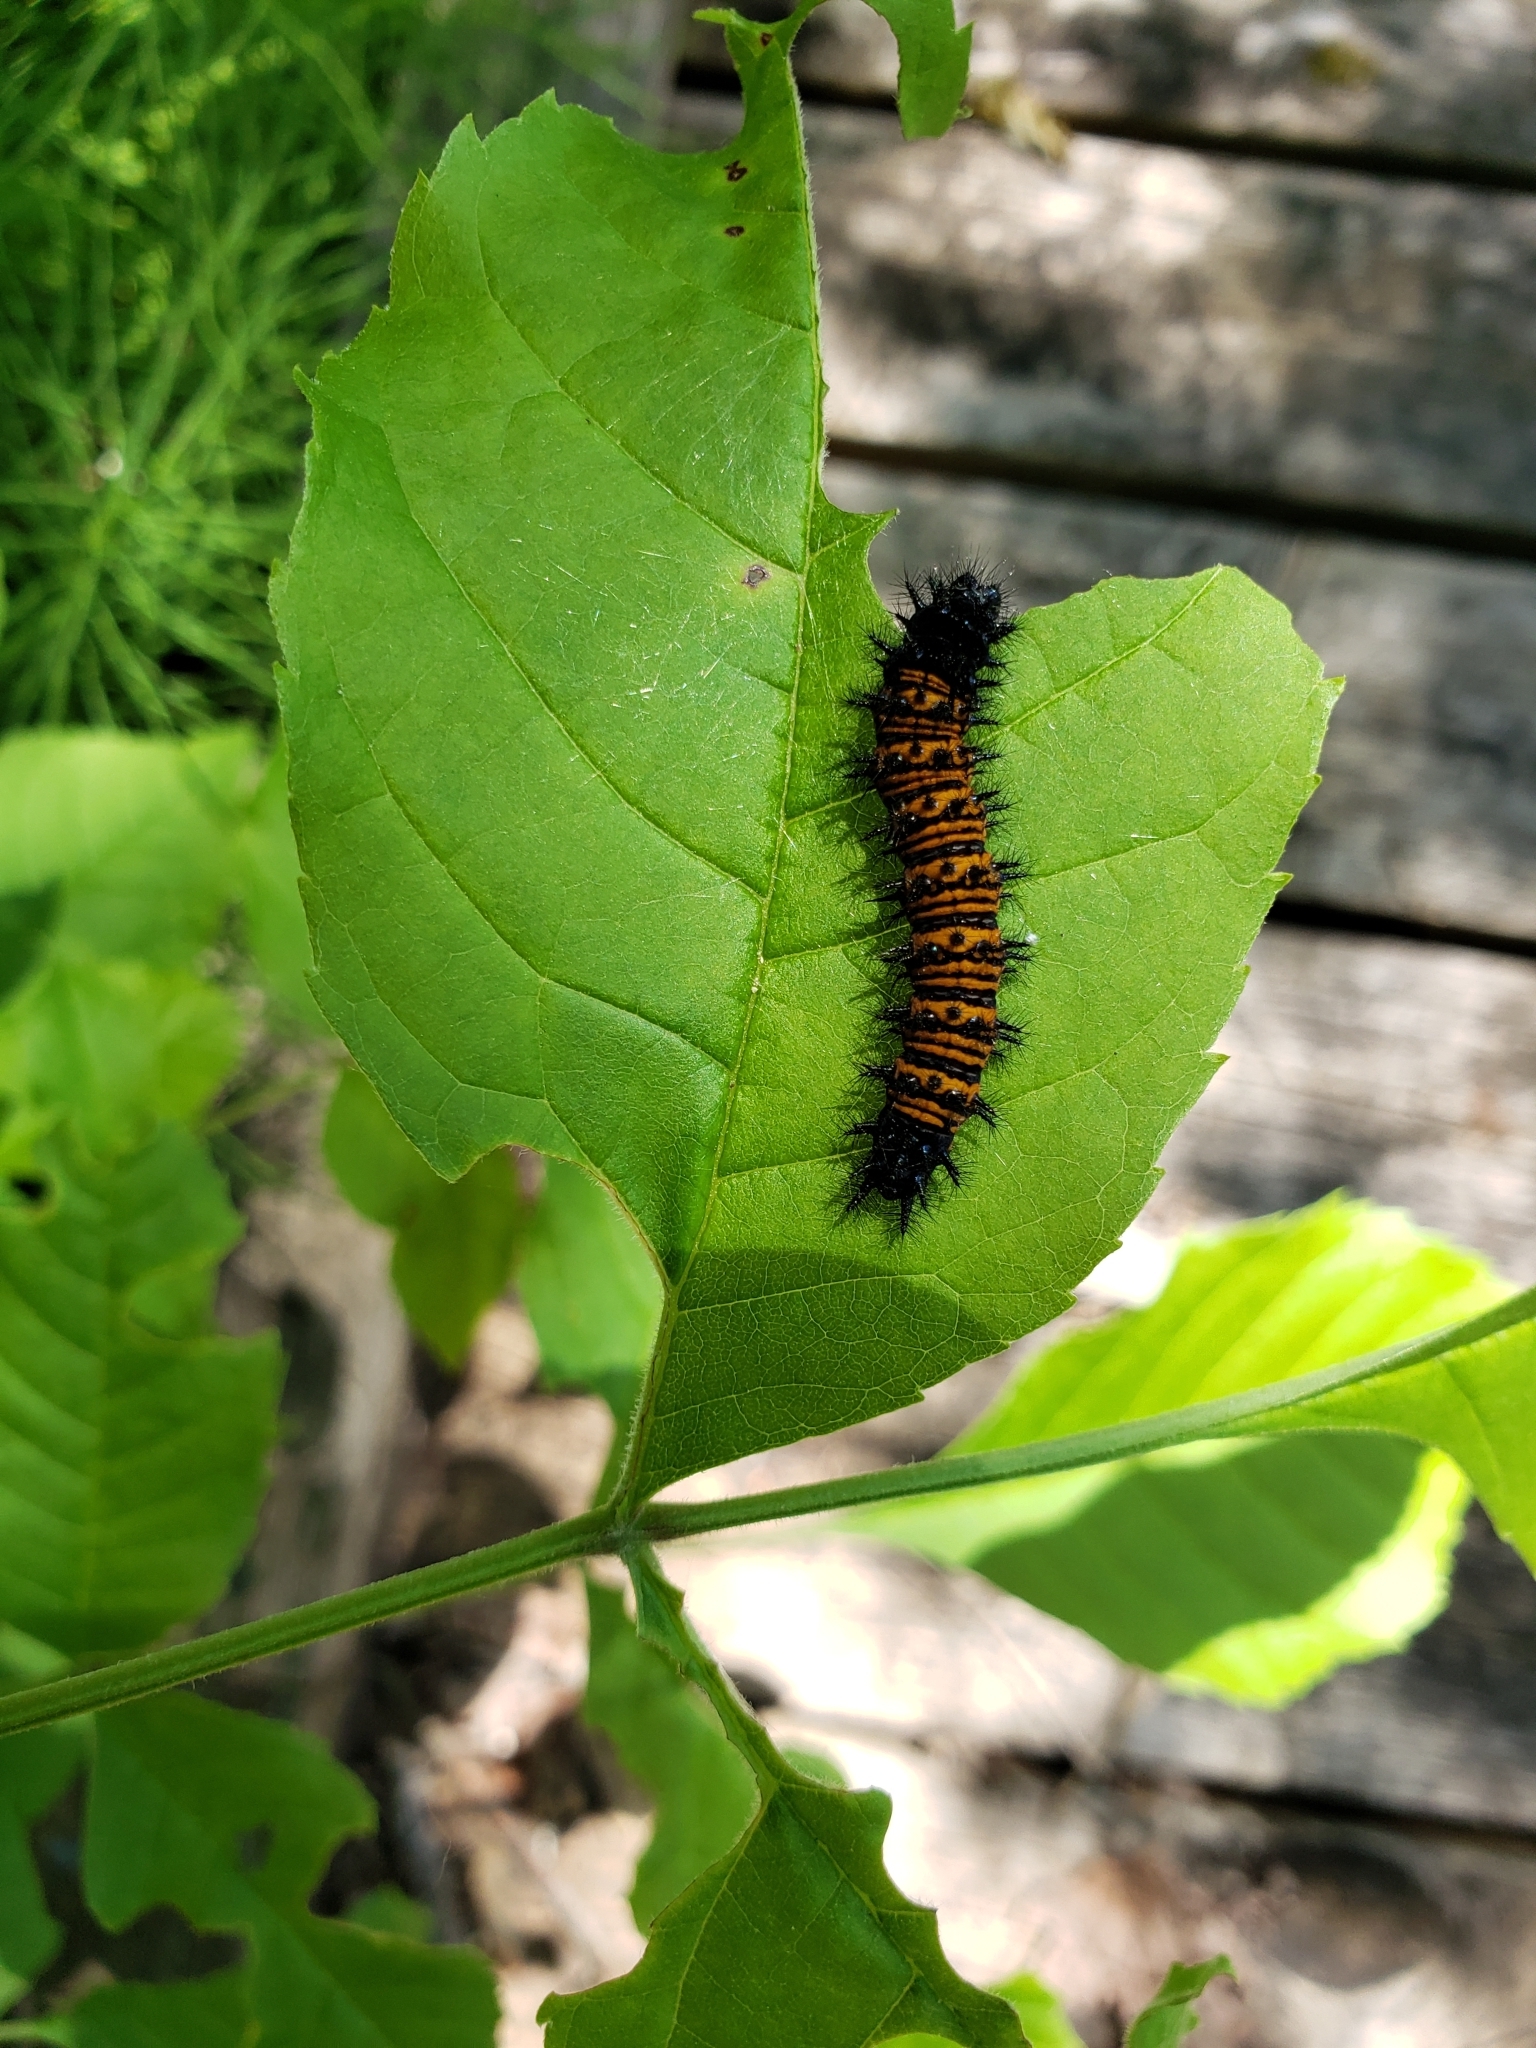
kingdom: Animalia
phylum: Arthropoda
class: Insecta
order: Lepidoptera
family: Nymphalidae
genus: Euphydryas
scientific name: Euphydryas phaeton
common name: Baltimore checkerspot
